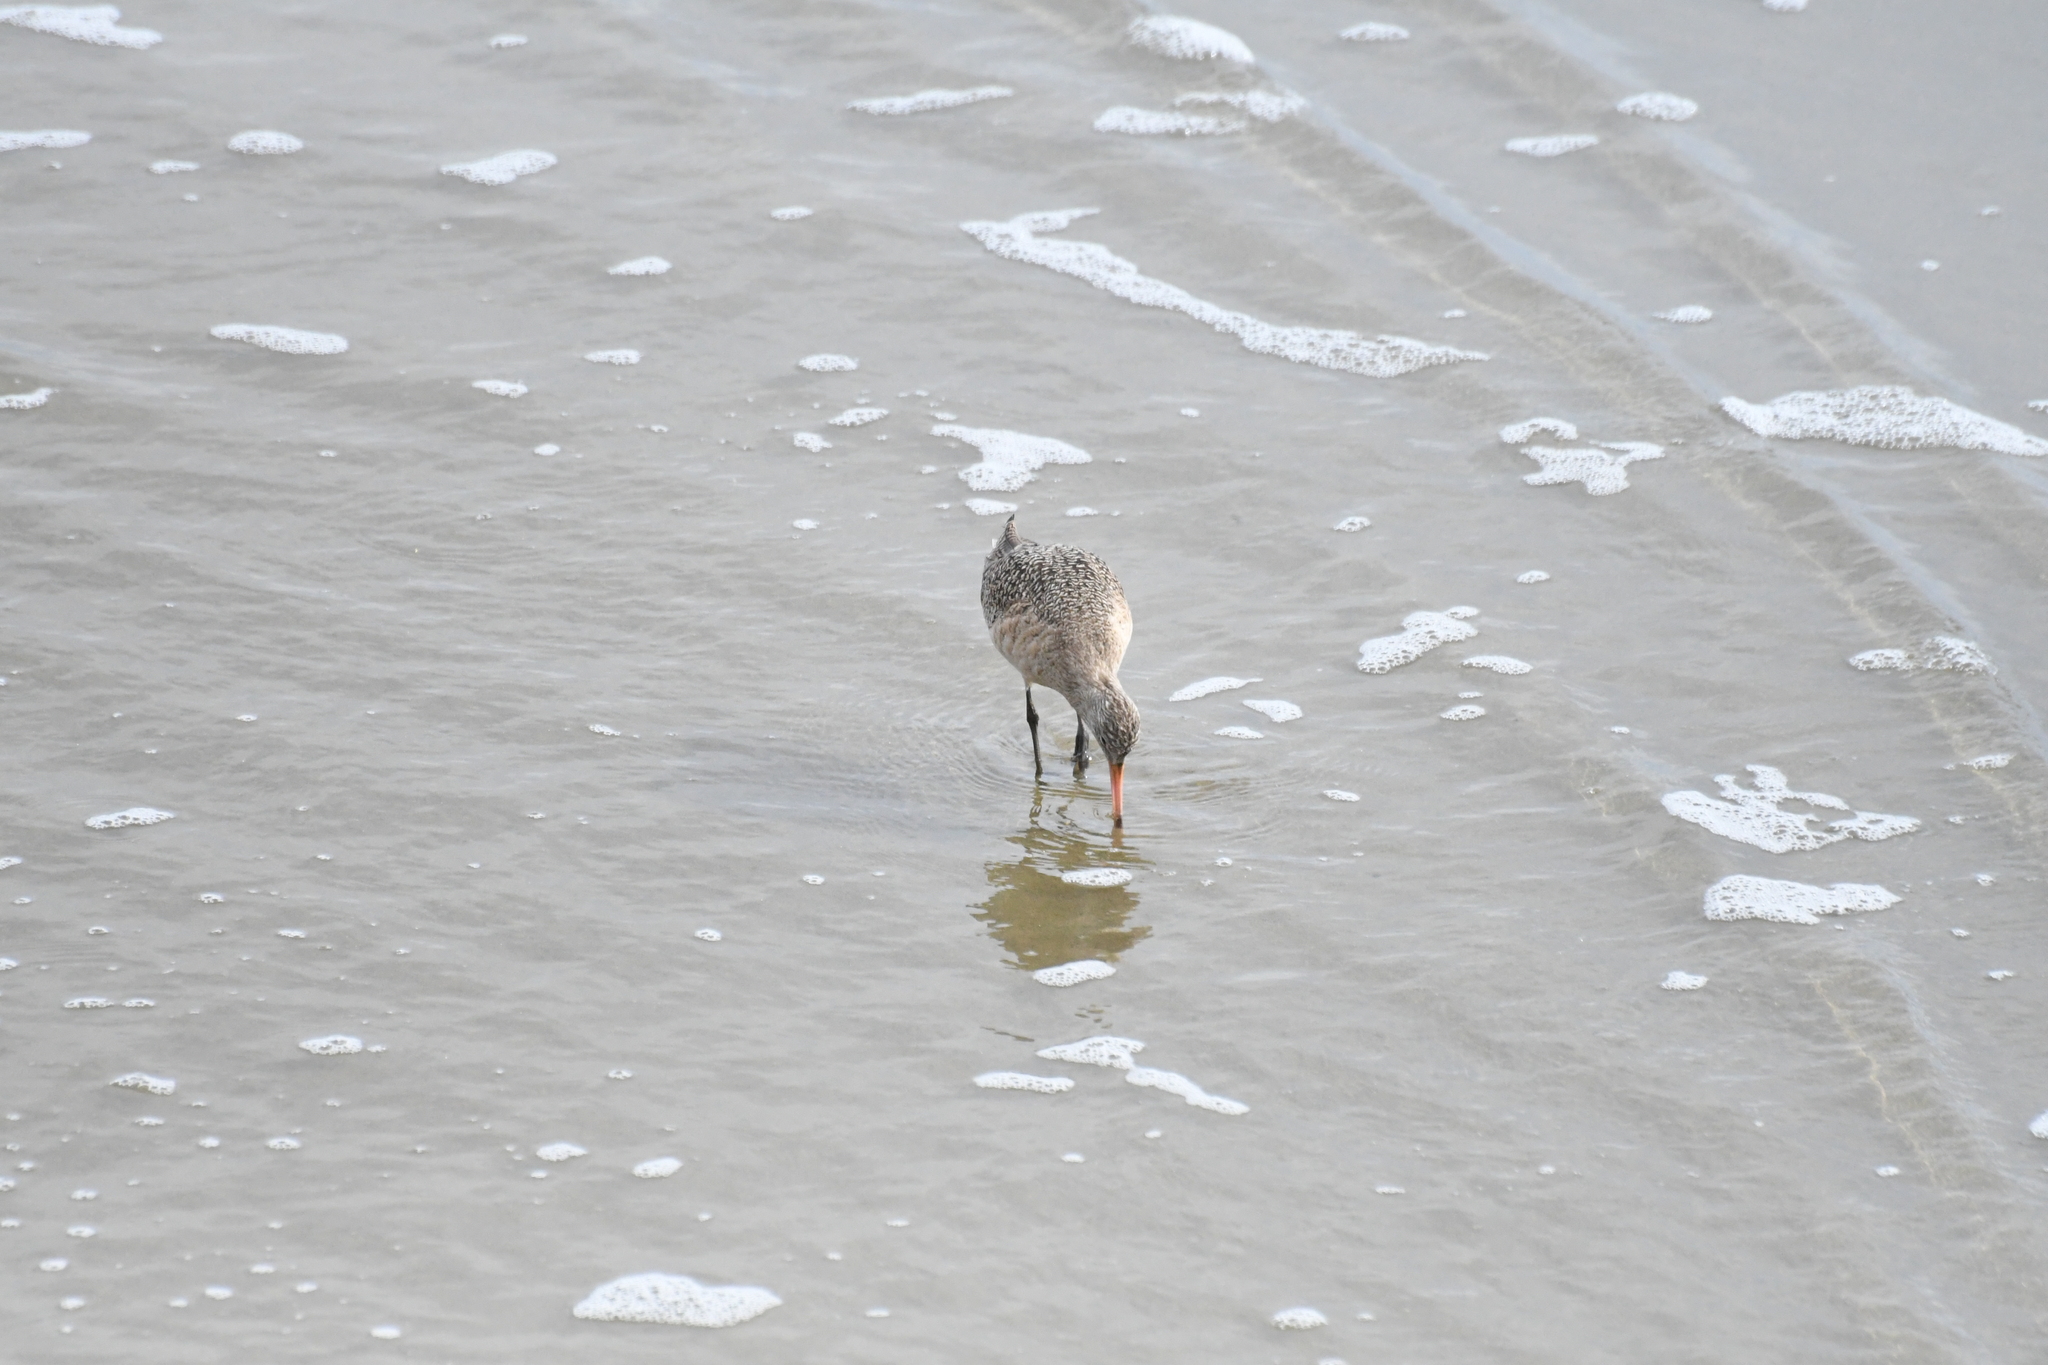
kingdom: Animalia
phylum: Chordata
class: Aves
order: Charadriiformes
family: Scolopacidae
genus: Limosa
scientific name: Limosa fedoa
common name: Marbled godwit
